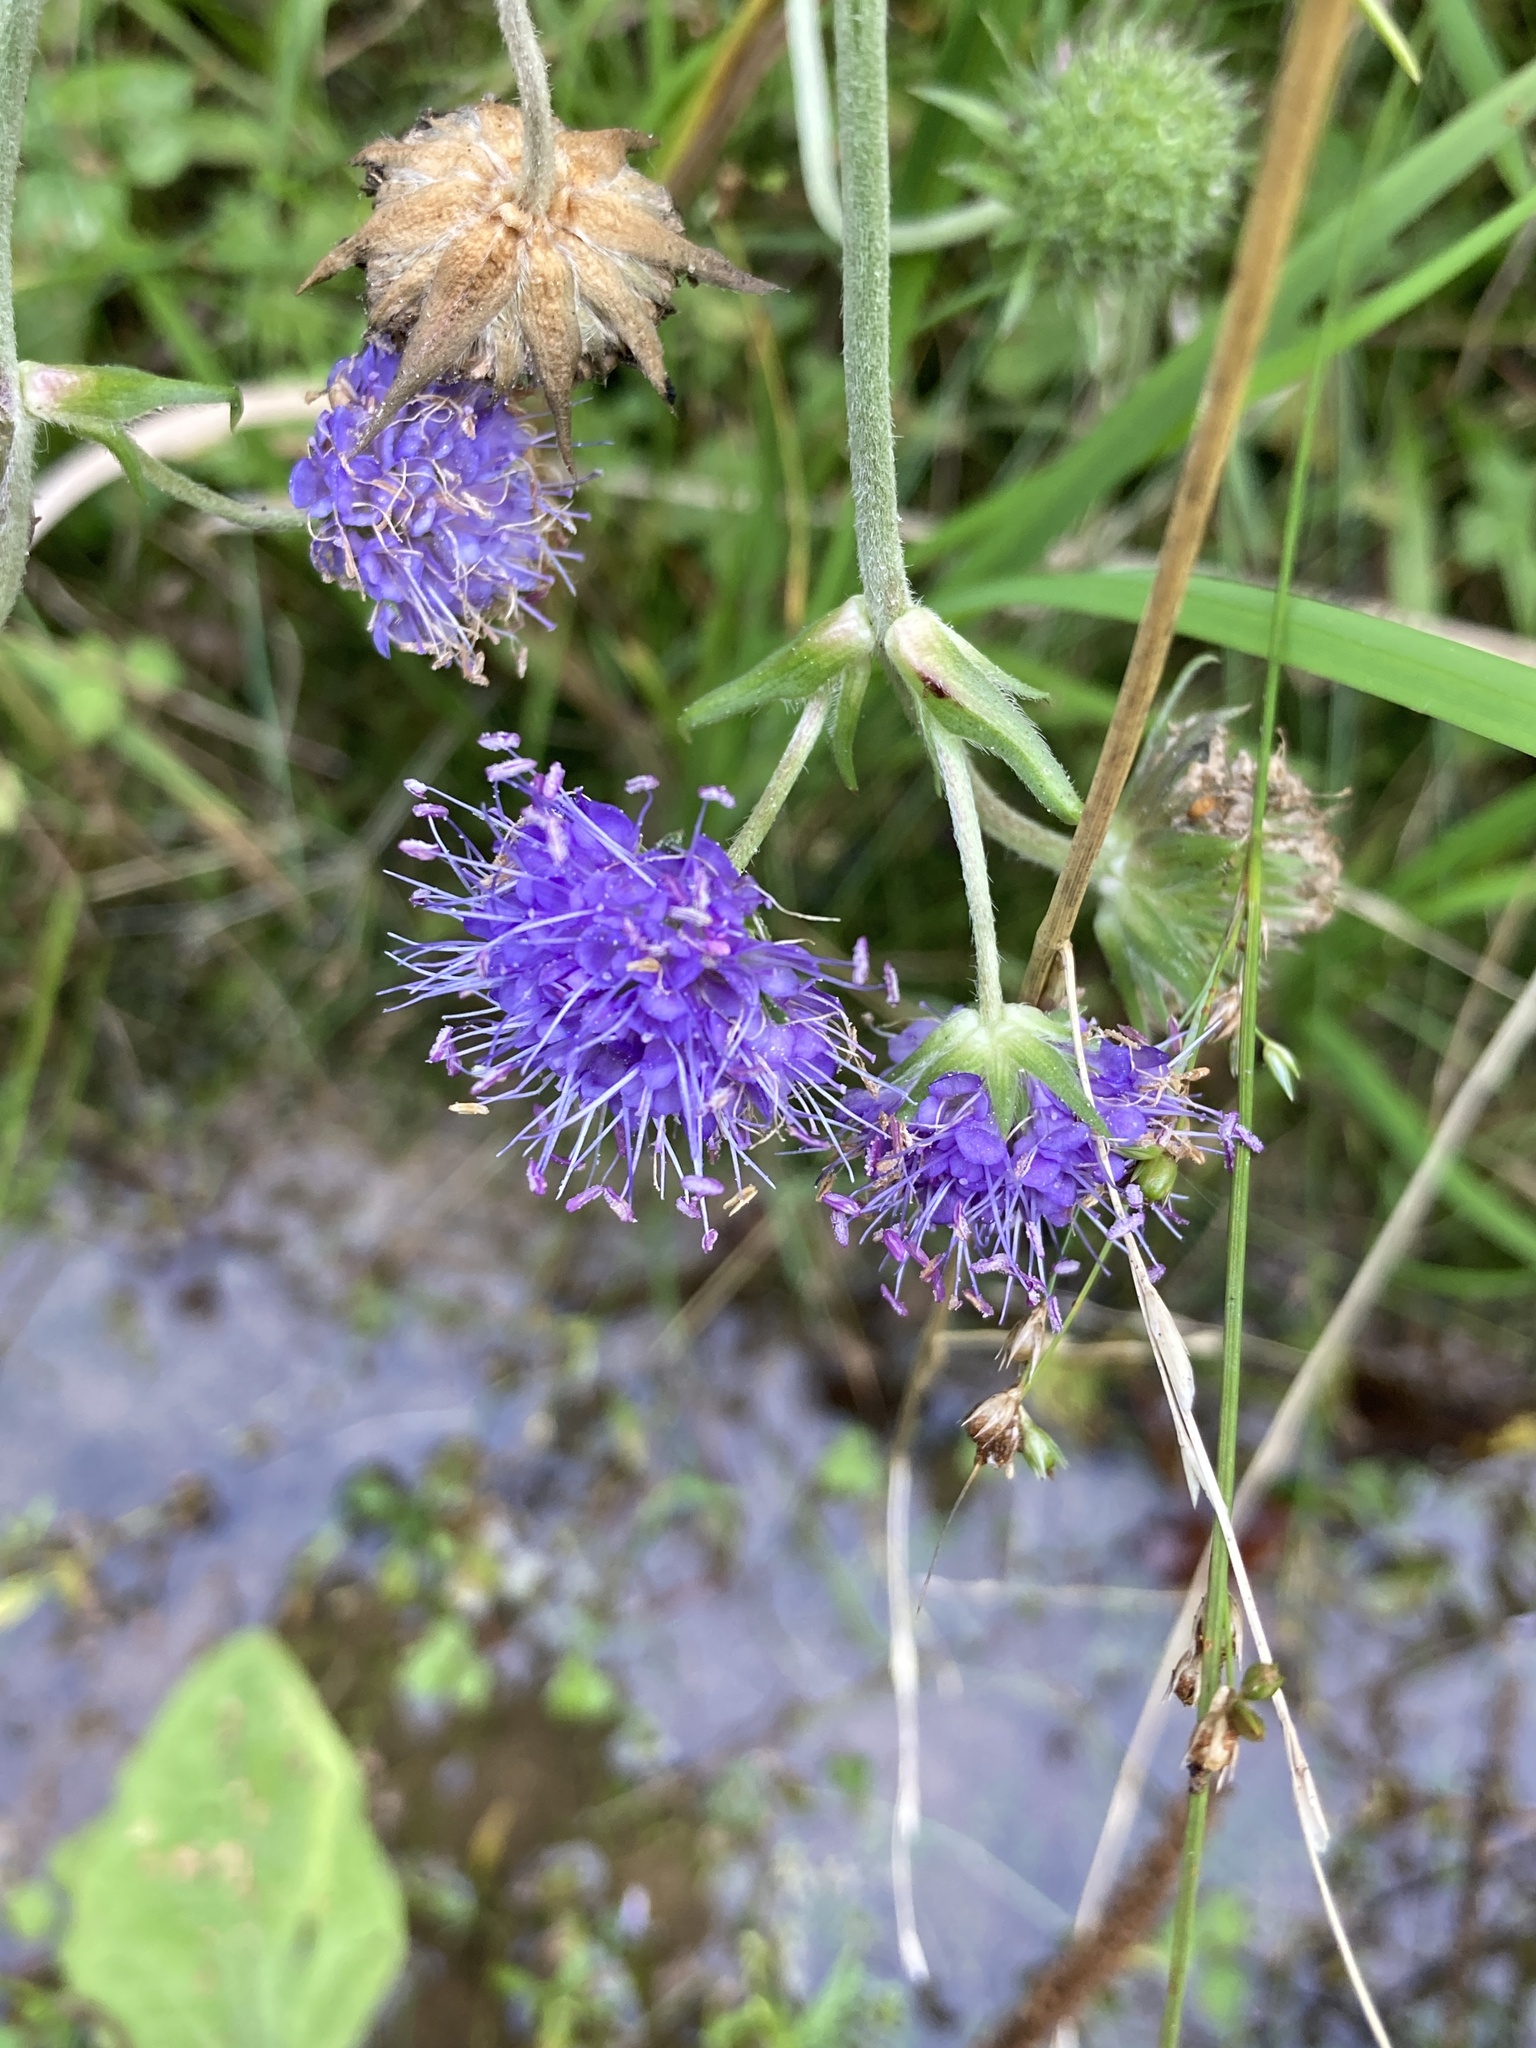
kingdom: Plantae
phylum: Tracheophyta
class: Magnoliopsida
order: Dipsacales
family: Caprifoliaceae
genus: Succisa
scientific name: Succisa pratensis
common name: Devil's-bit
